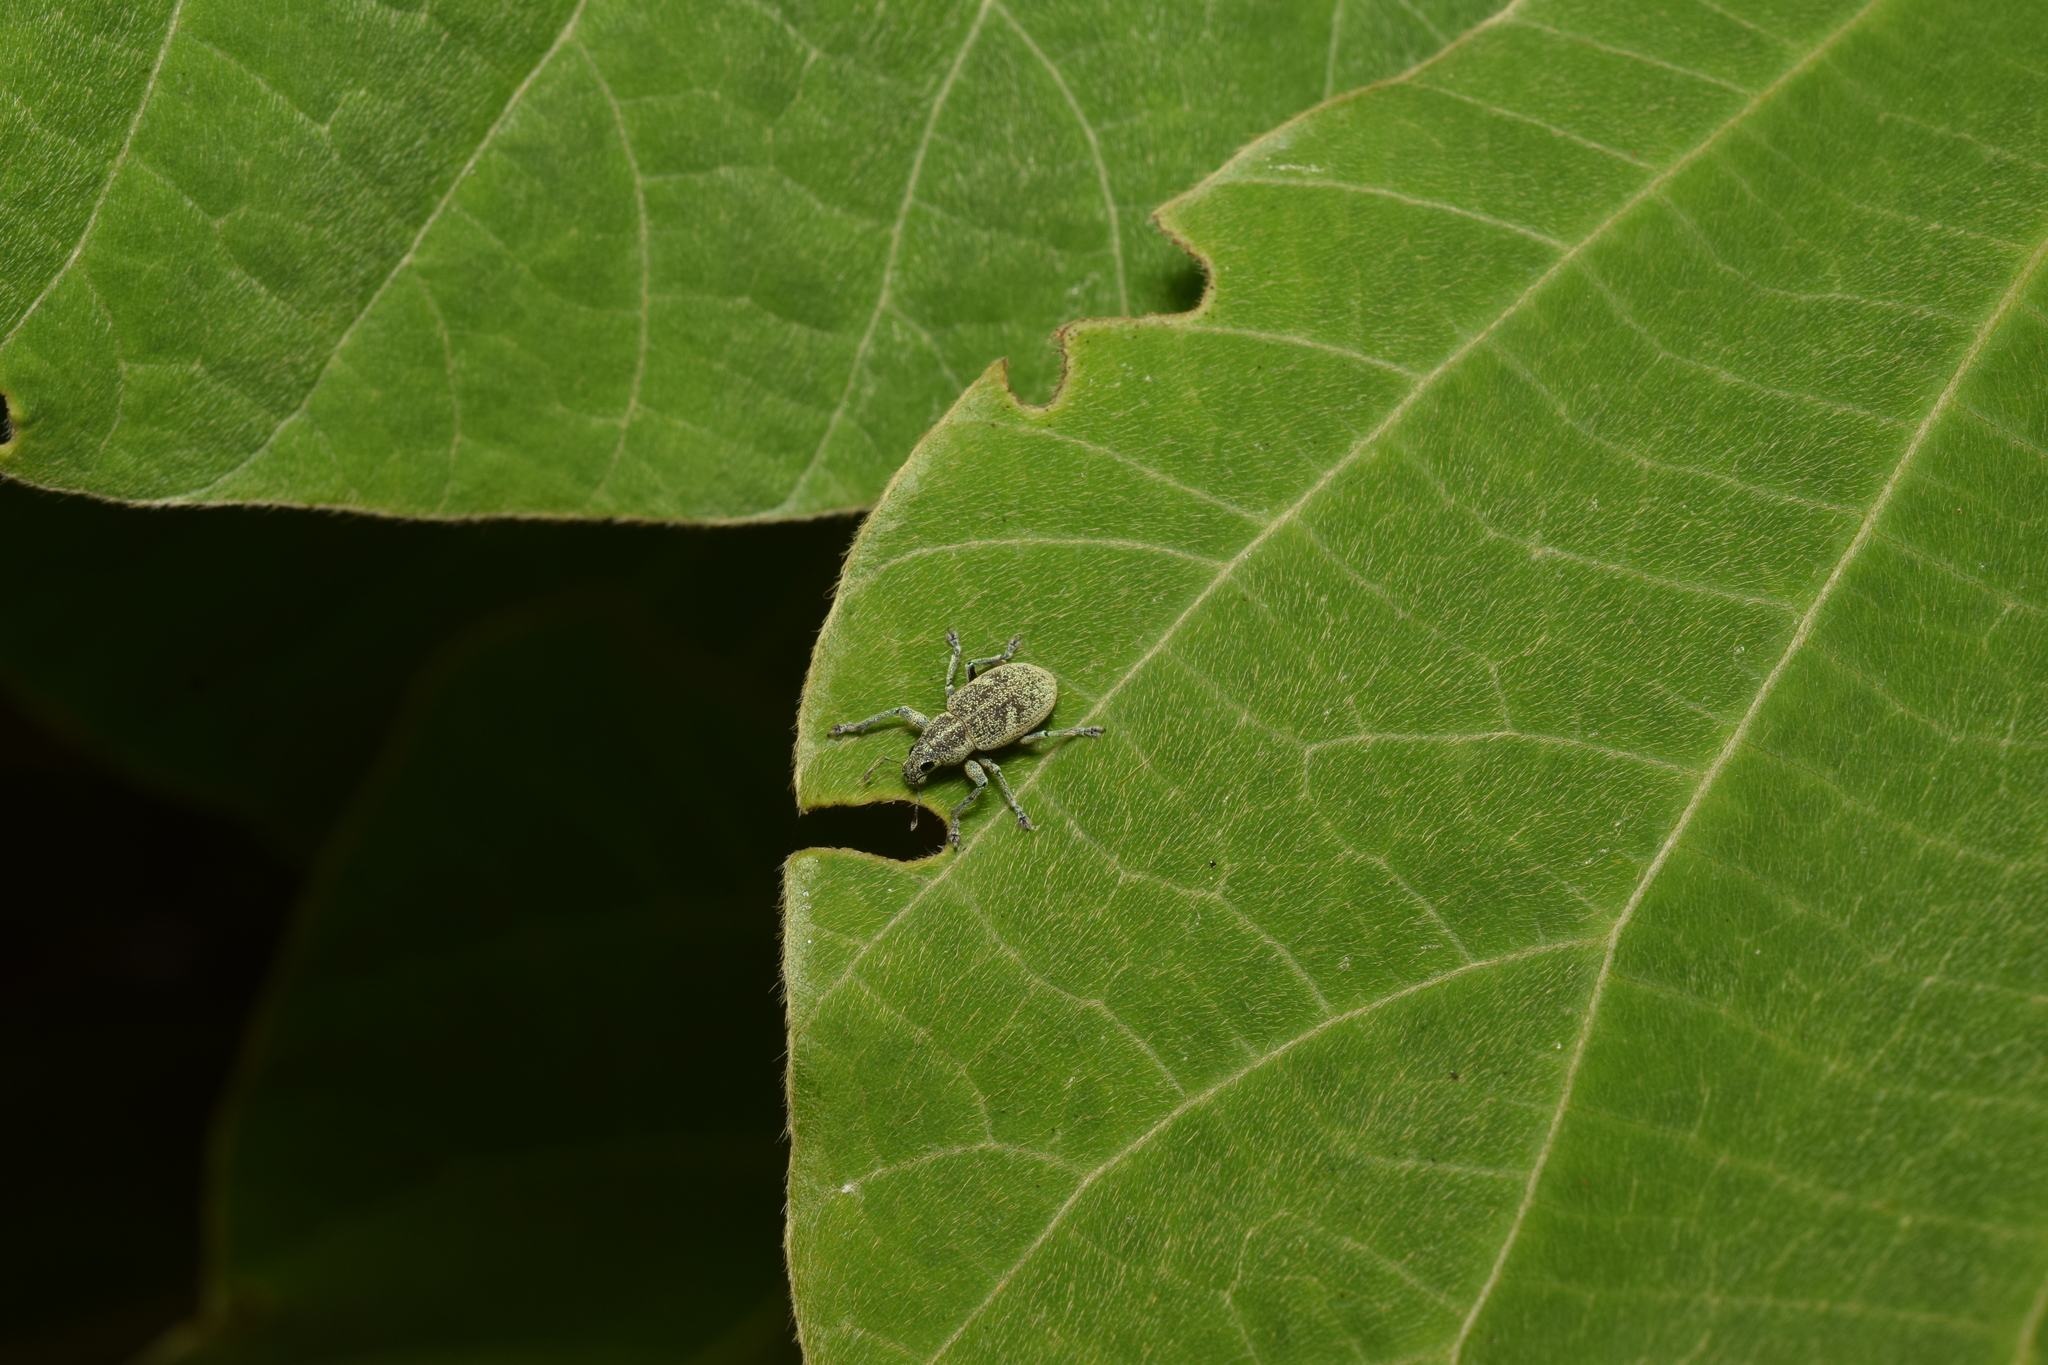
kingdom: Animalia
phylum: Arthropoda
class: Insecta
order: Coleoptera
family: Curculionidae
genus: Eugnathus
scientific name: Eugnathus distinctus
